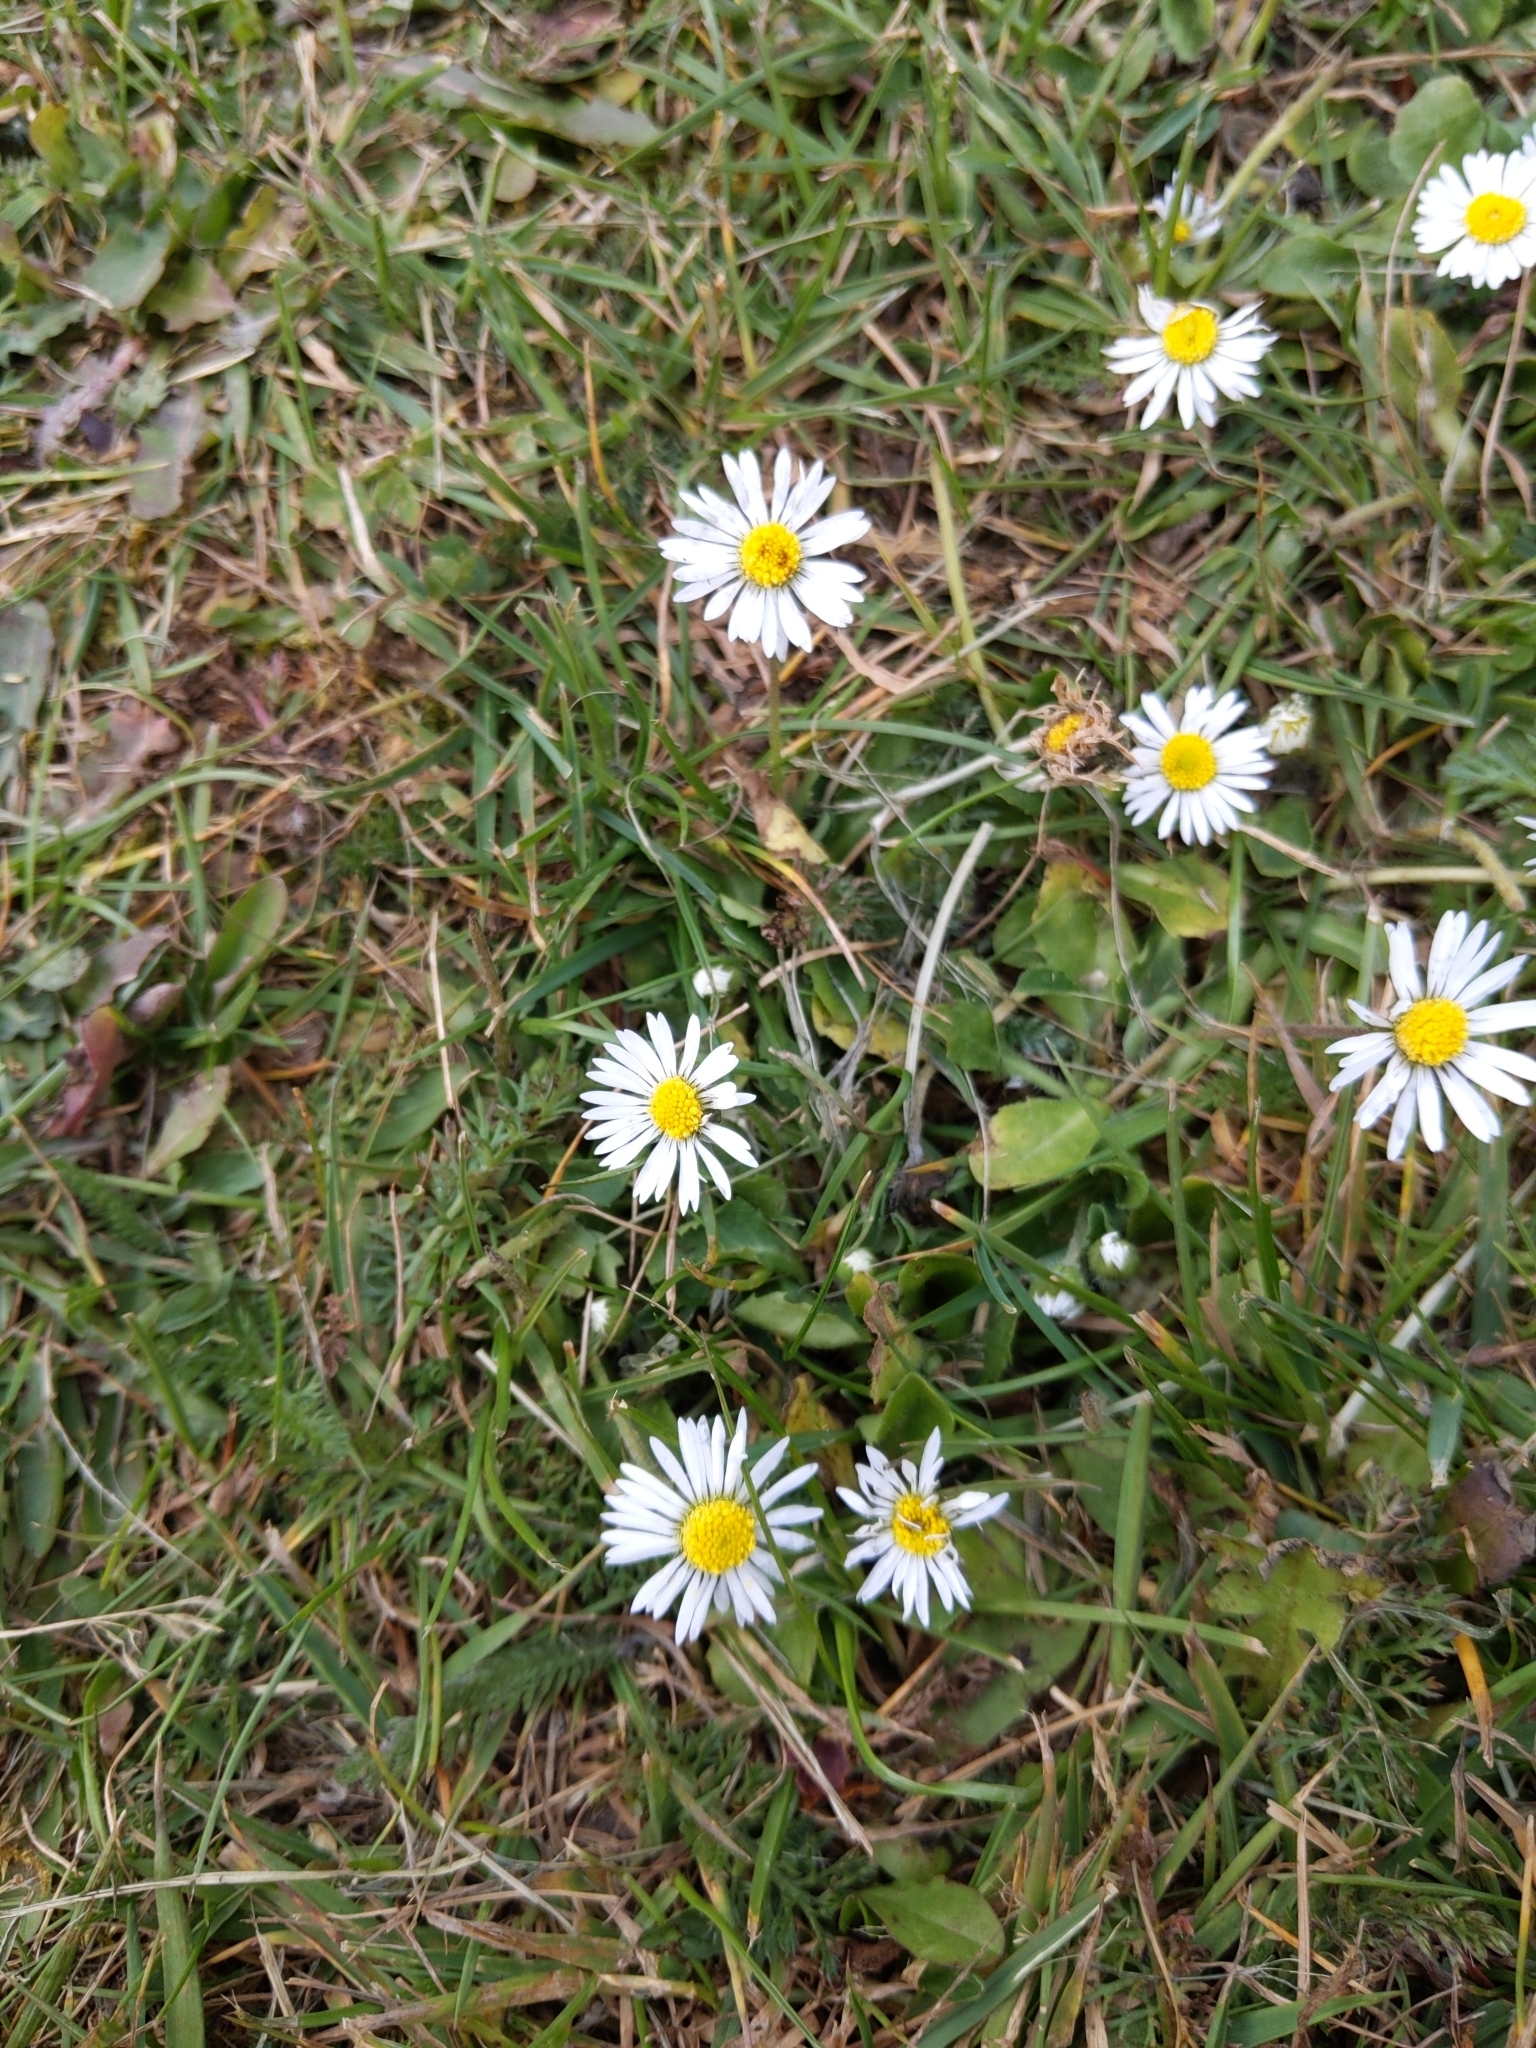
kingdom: Plantae
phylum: Tracheophyta
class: Magnoliopsida
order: Asterales
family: Asteraceae
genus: Bellis
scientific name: Bellis perennis
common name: Lawndaisy
